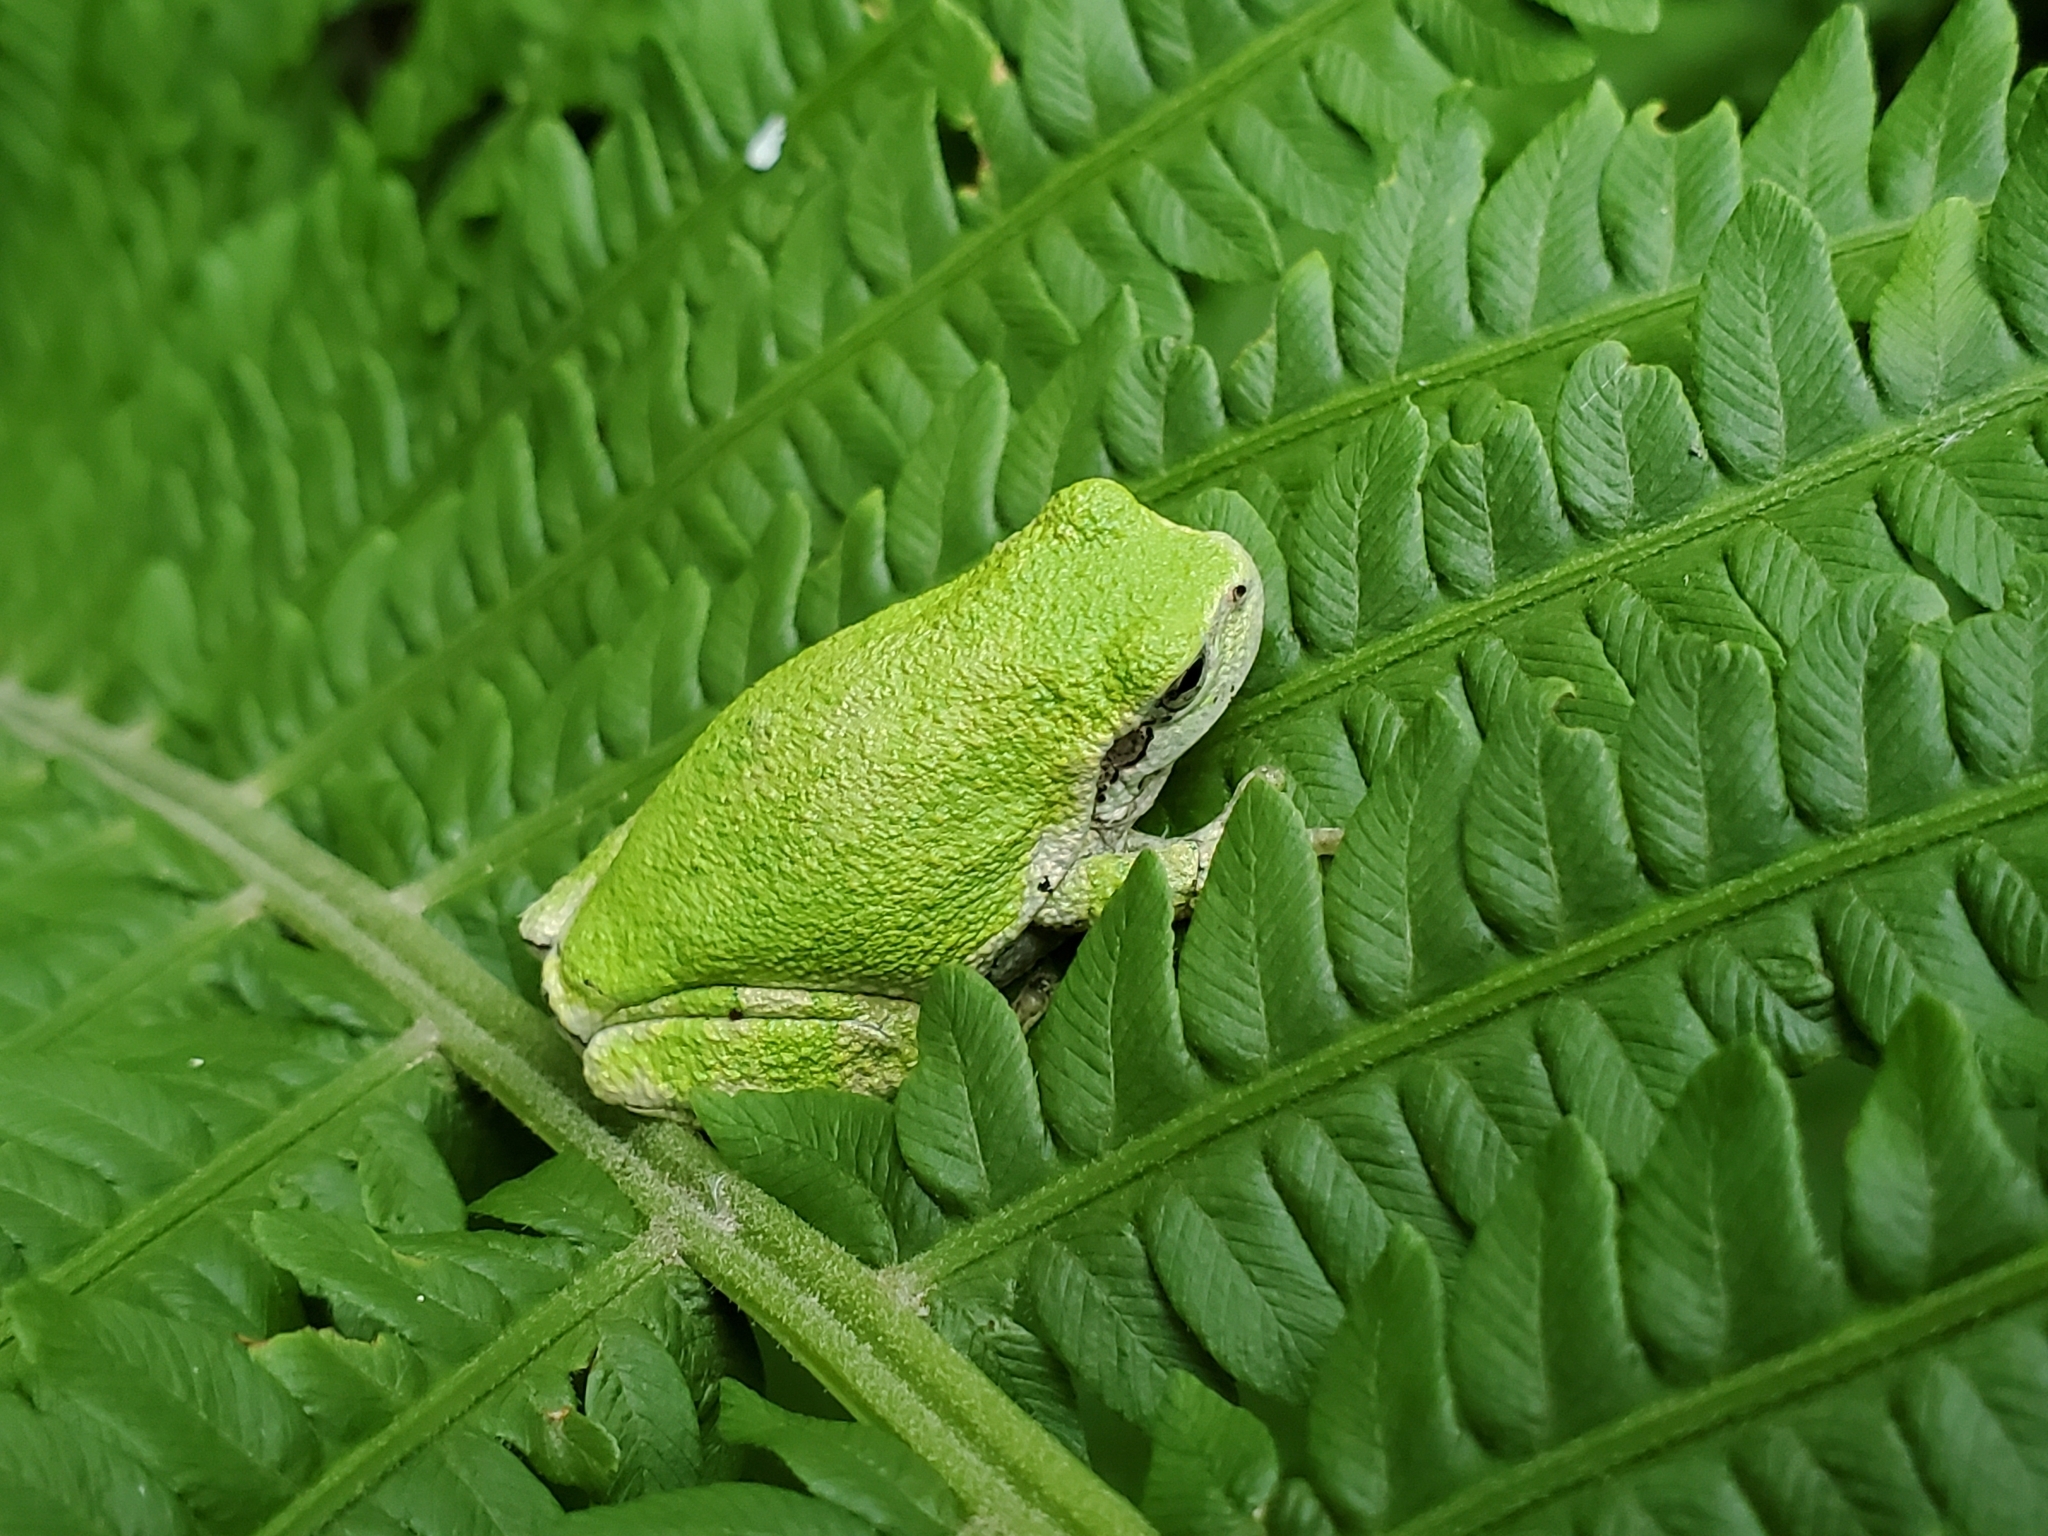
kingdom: Animalia
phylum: Chordata
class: Amphibia
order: Anura
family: Hylidae
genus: Hyla
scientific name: Hyla
